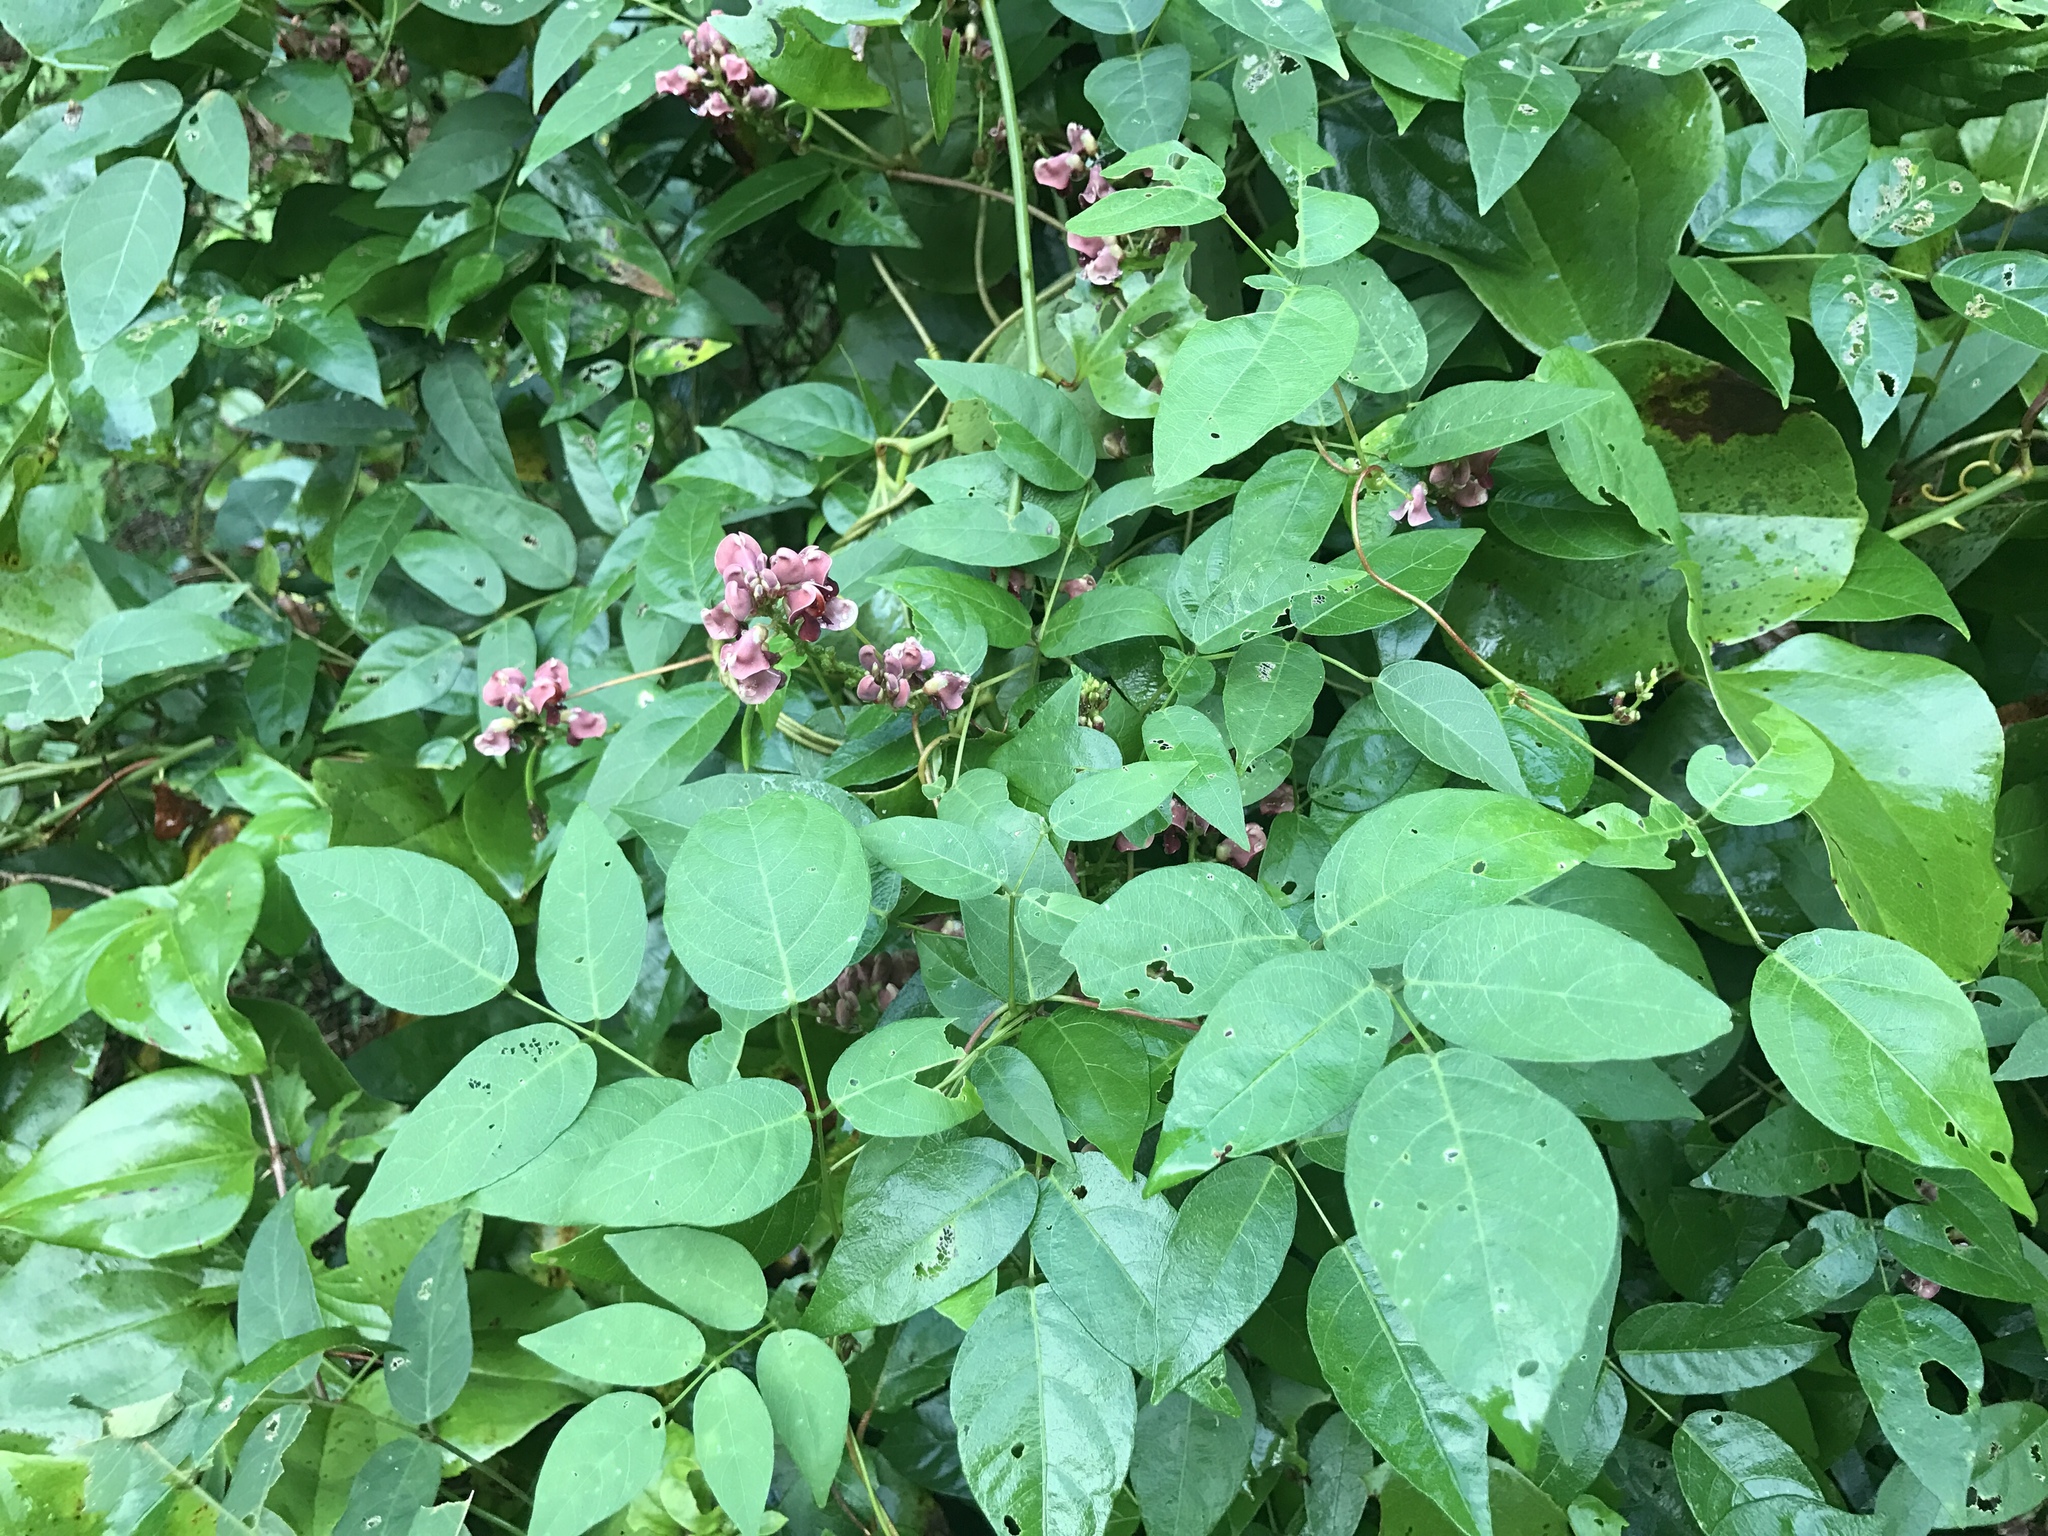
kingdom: Plantae
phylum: Tracheophyta
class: Magnoliopsida
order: Fabales
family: Fabaceae
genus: Apios
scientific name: Apios americana
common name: American potato-bean
